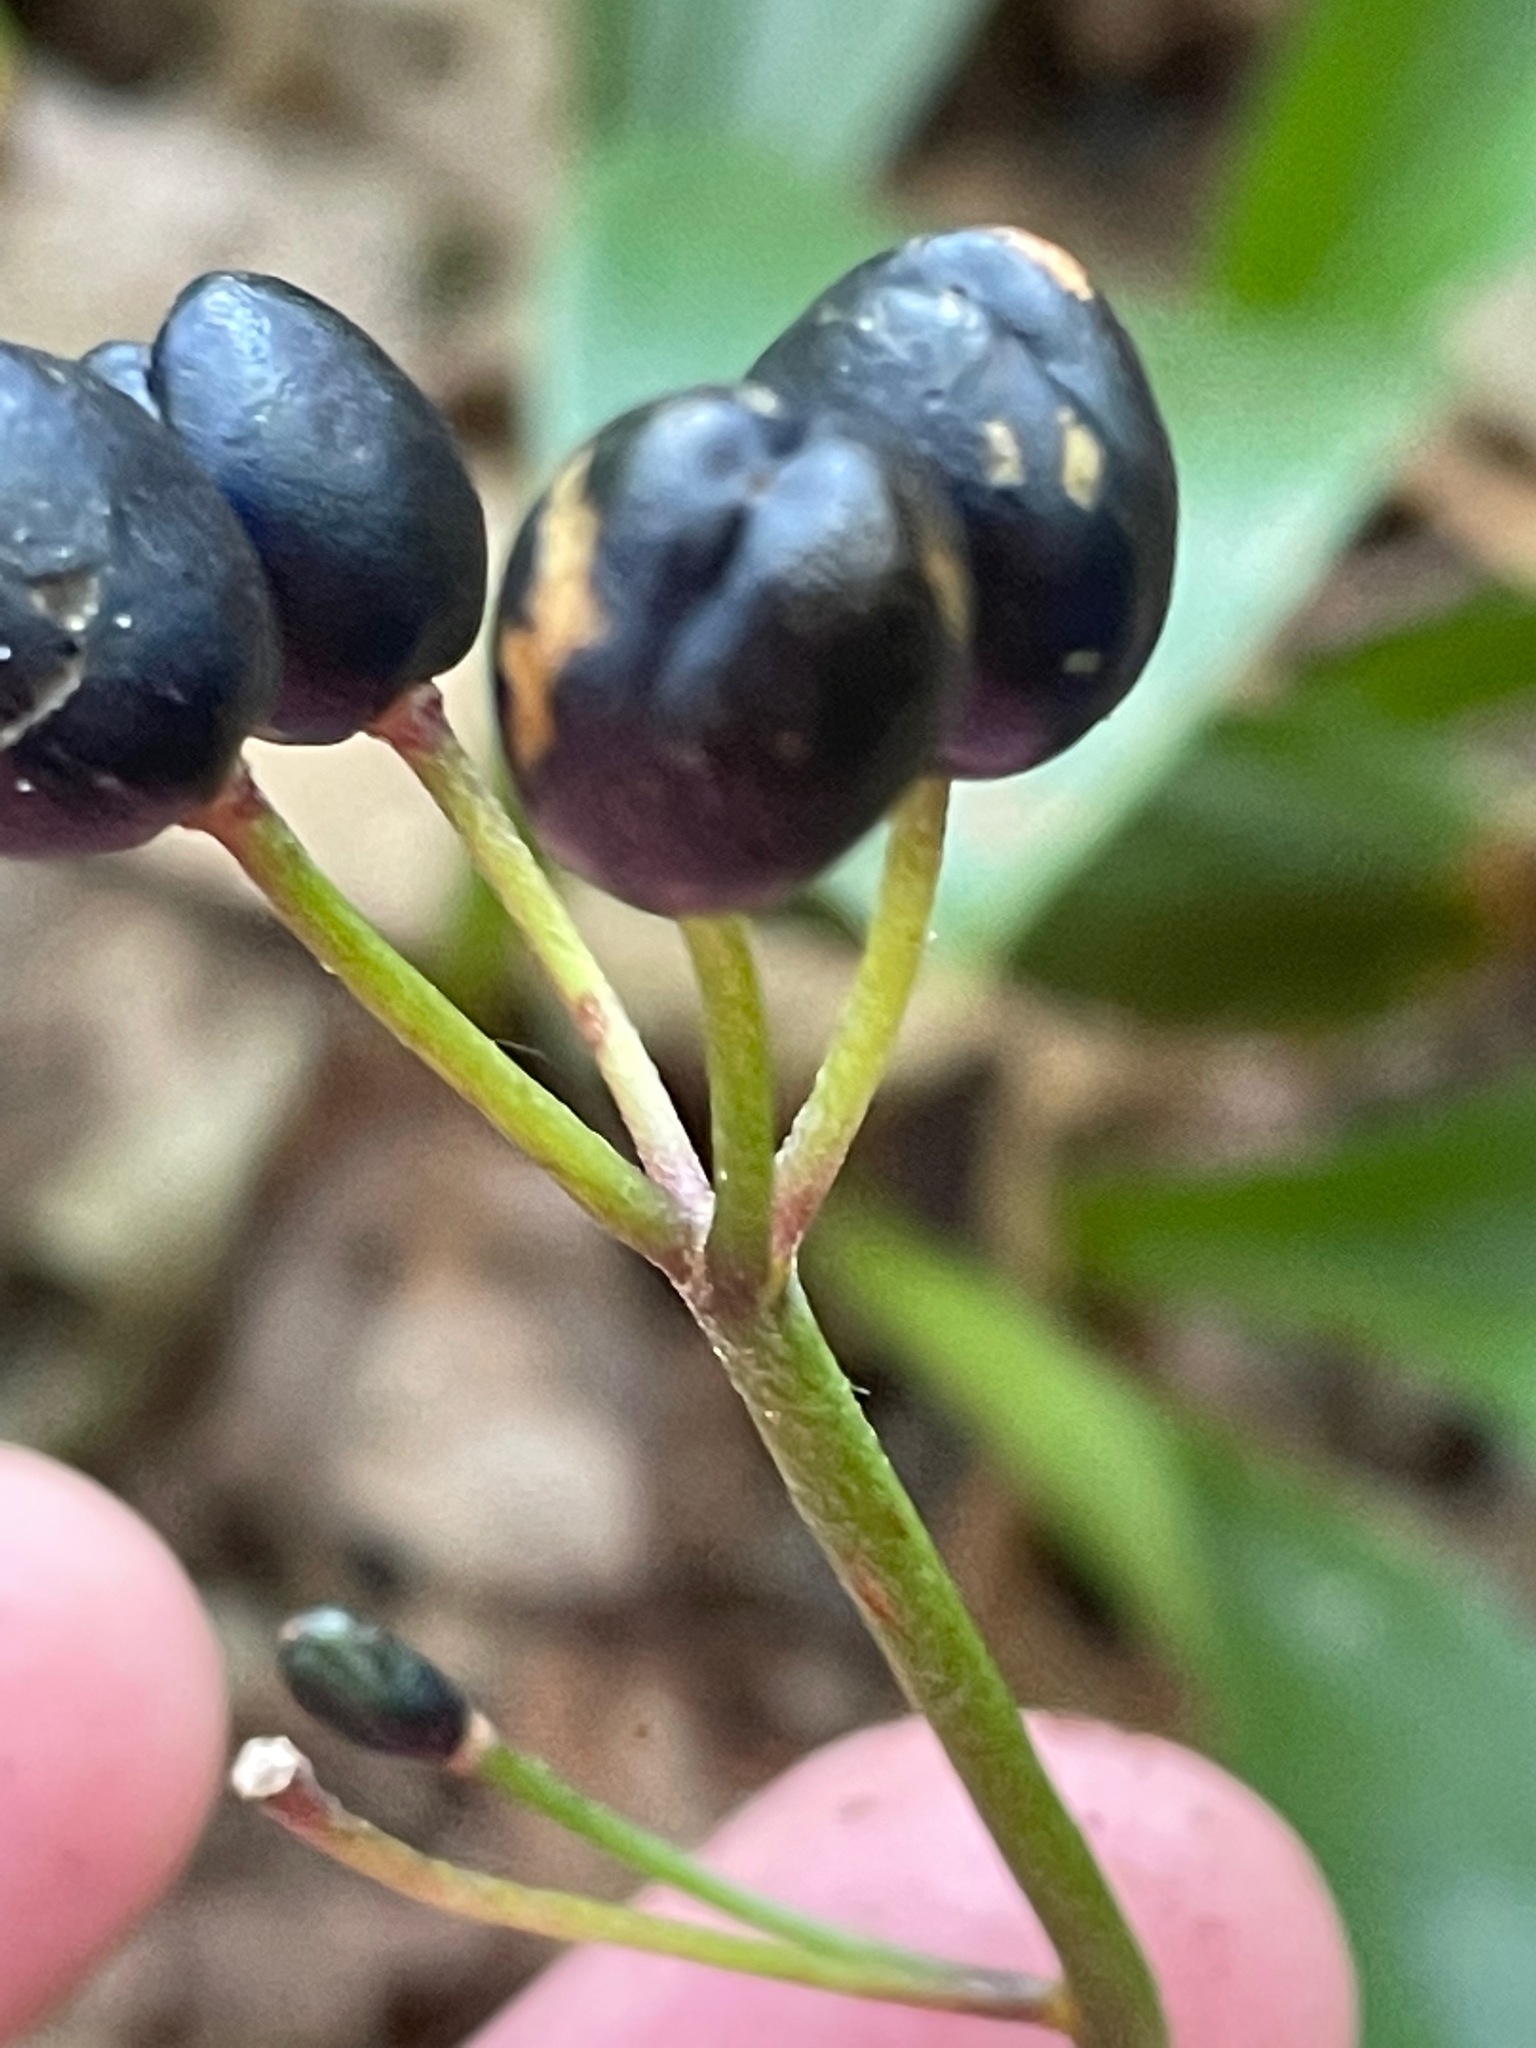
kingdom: Plantae
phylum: Tracheophyta
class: Liliopsida
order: Liliales
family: Liliaceae
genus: Clintonia
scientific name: Clintonia borealis
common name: Yellow clintonia
